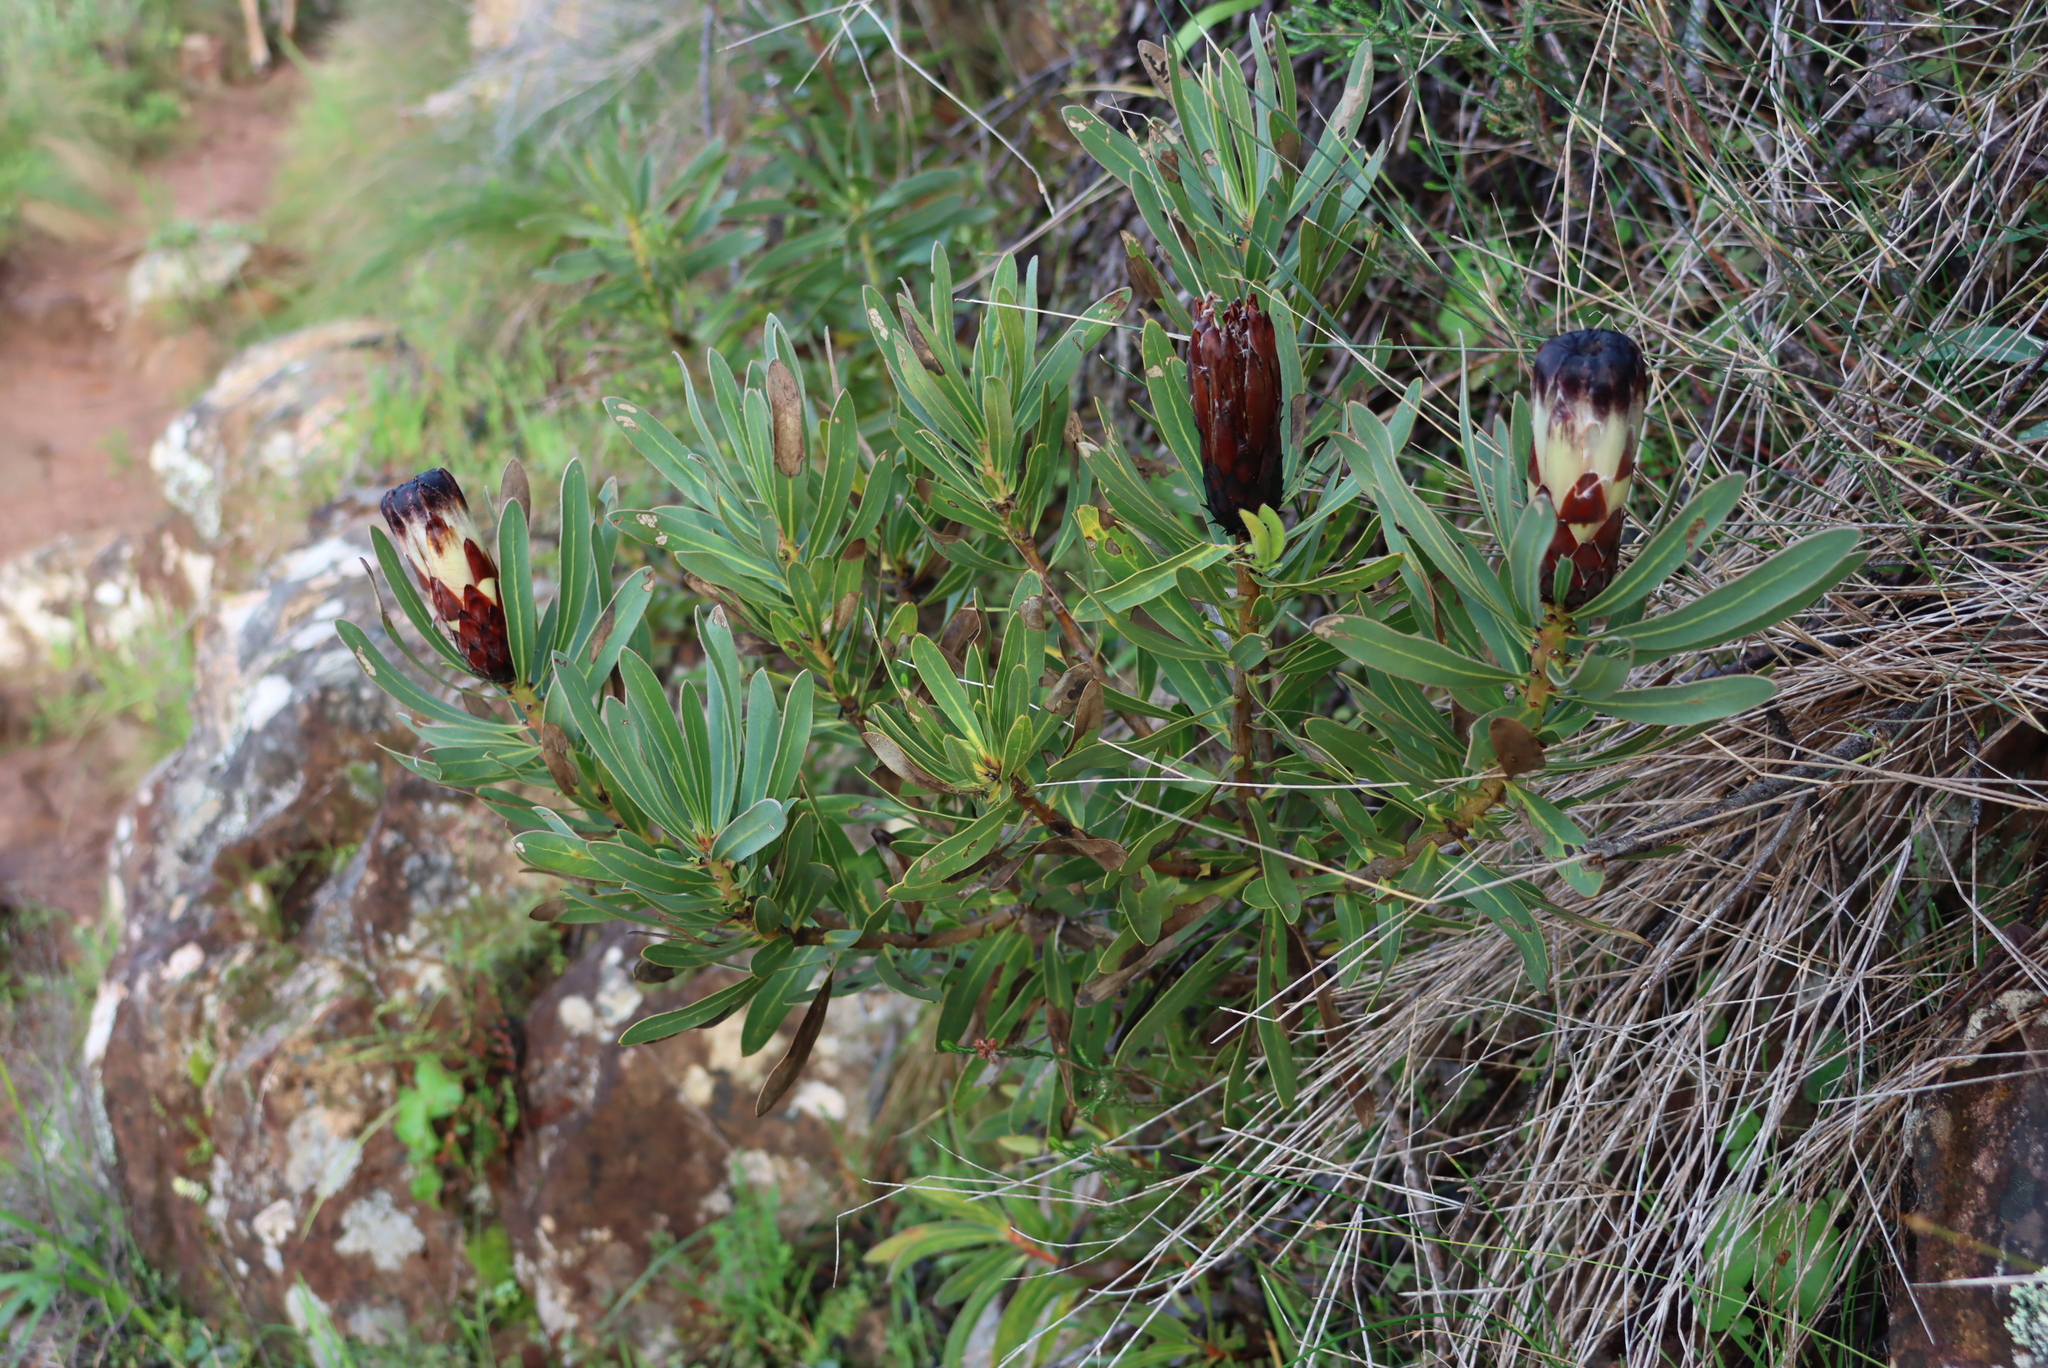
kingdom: Plantae
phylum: Tracheophyta
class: Magnoliopsida
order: Proteales
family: Proteaceae
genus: Protea
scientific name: Protea lepidocarpodendron
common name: Black-bearded protea
